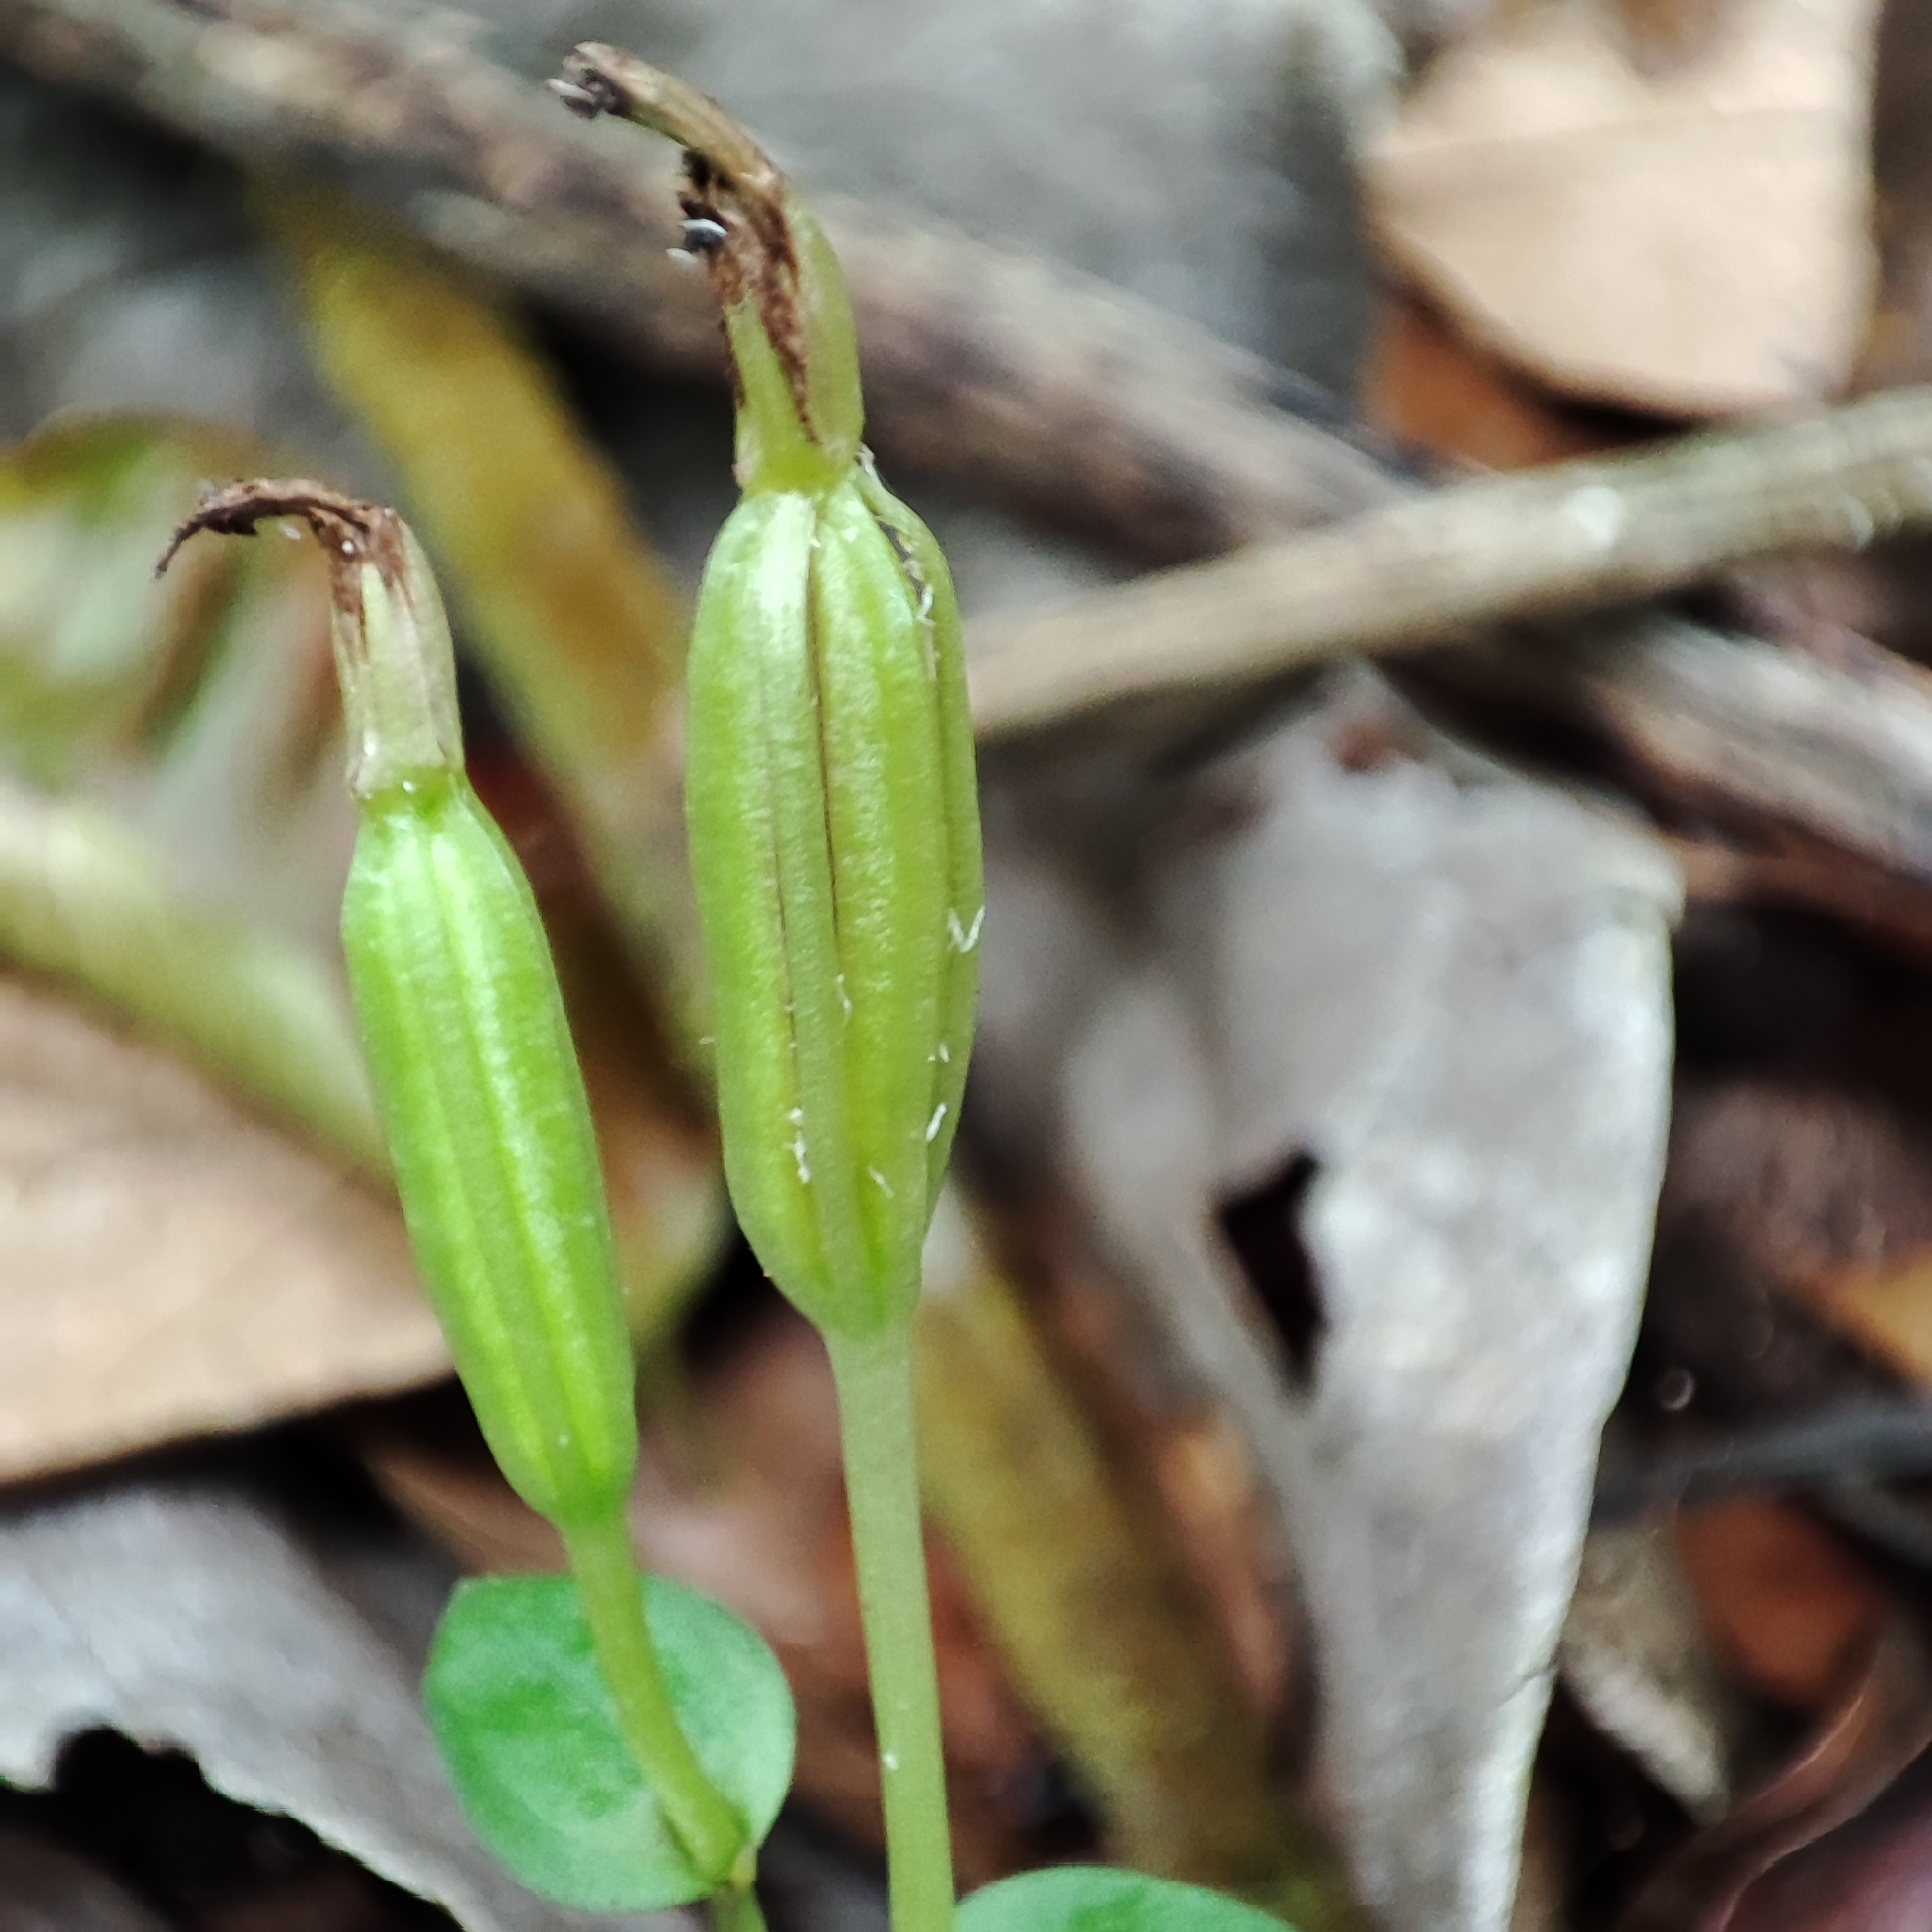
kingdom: Plantae
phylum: Tracheophyta
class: Liliopsida
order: Asparagales
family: Orchidaceae
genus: Triphora
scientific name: Triphora surinamensis
